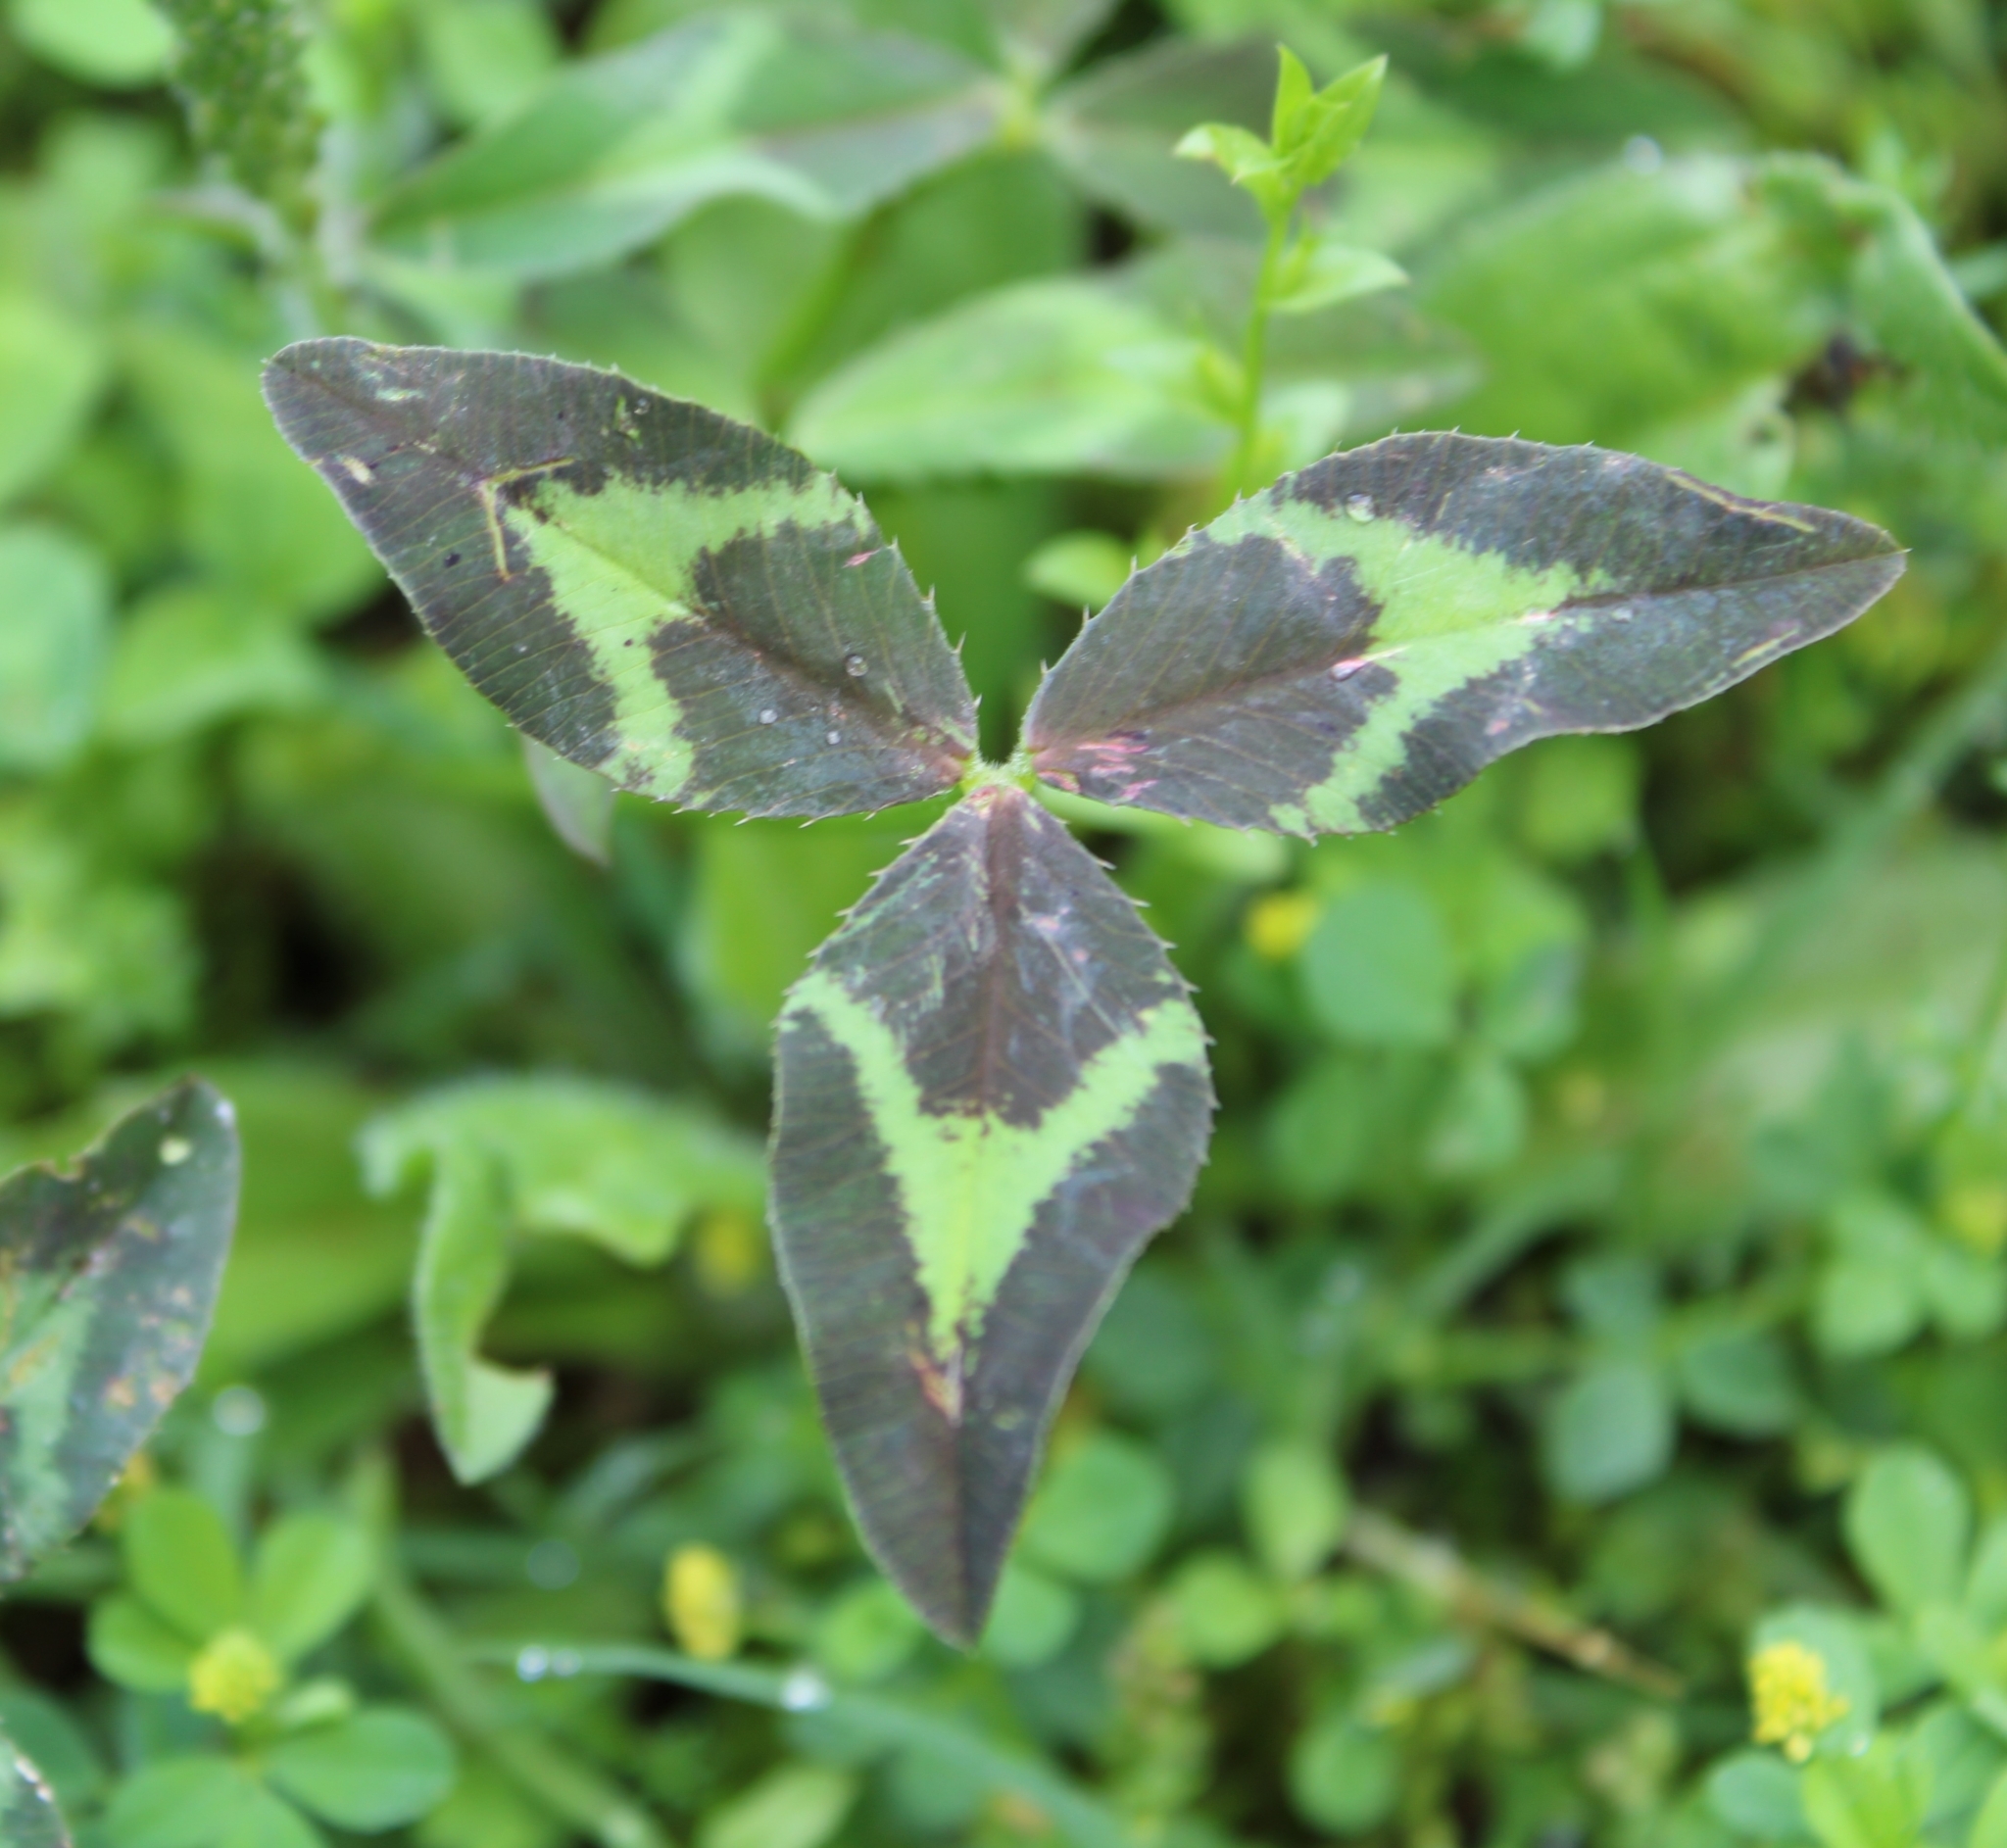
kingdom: Plantae
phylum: Tracheophyta
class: Magnoliopsida
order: Fabales
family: Fabaceae
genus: Trifolium
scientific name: Trifolium vesiculosum
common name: Arrowleaf clover
